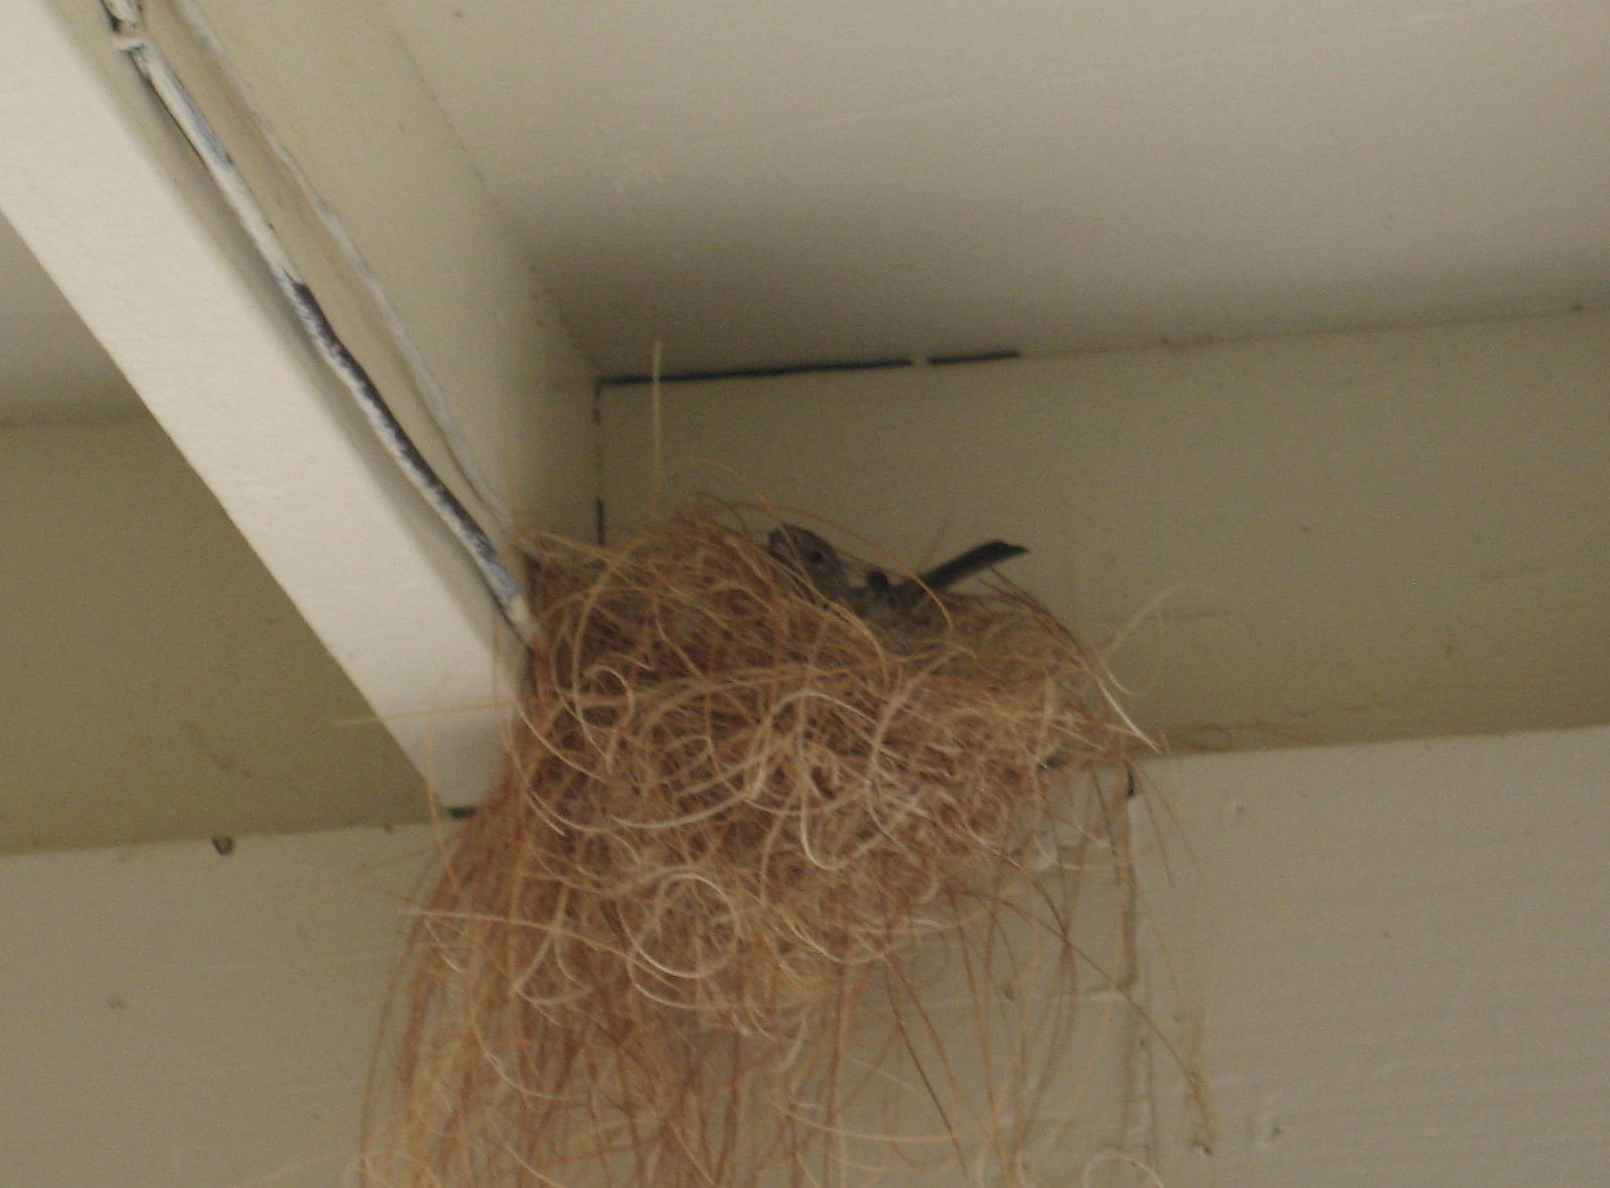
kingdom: Animalia
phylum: Chordata
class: Aves
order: Passeriformes
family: Fringillidae
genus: Haemorhous
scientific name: Haemorhous mexicanus
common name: House finch
